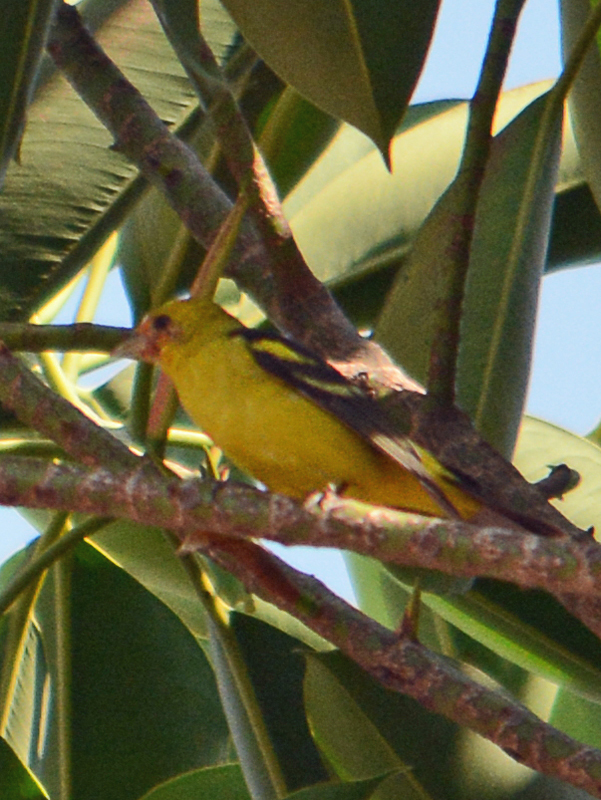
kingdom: Animalia
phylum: Chordata
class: Aves
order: Passeriformes
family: Cardinalidae
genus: Piranga
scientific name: Piranga ludoviciana
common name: Western tanager
